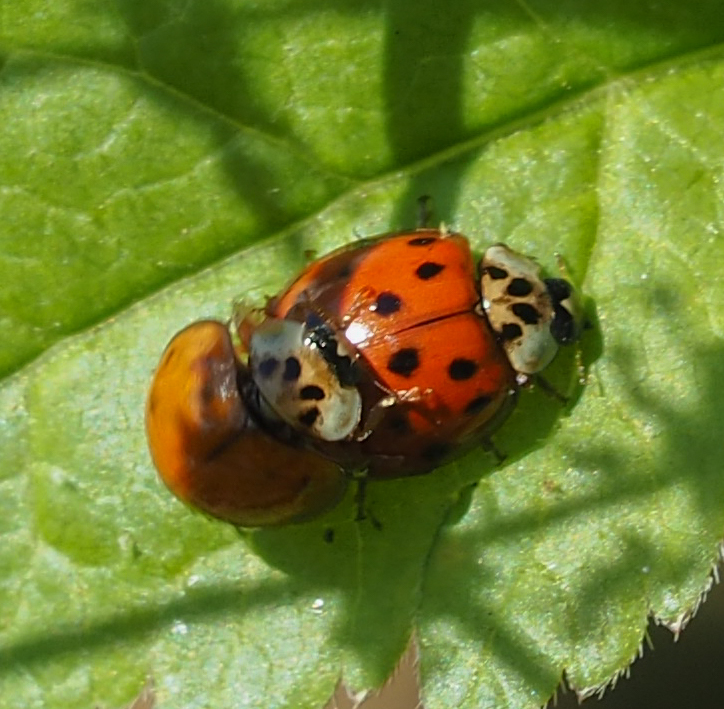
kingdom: Animalia
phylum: Arthropoda
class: Insecta
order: Coleoptera
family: Coccinellidae
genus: Harmonia
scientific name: Harmonia axyridis
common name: Harlequin ladybird
